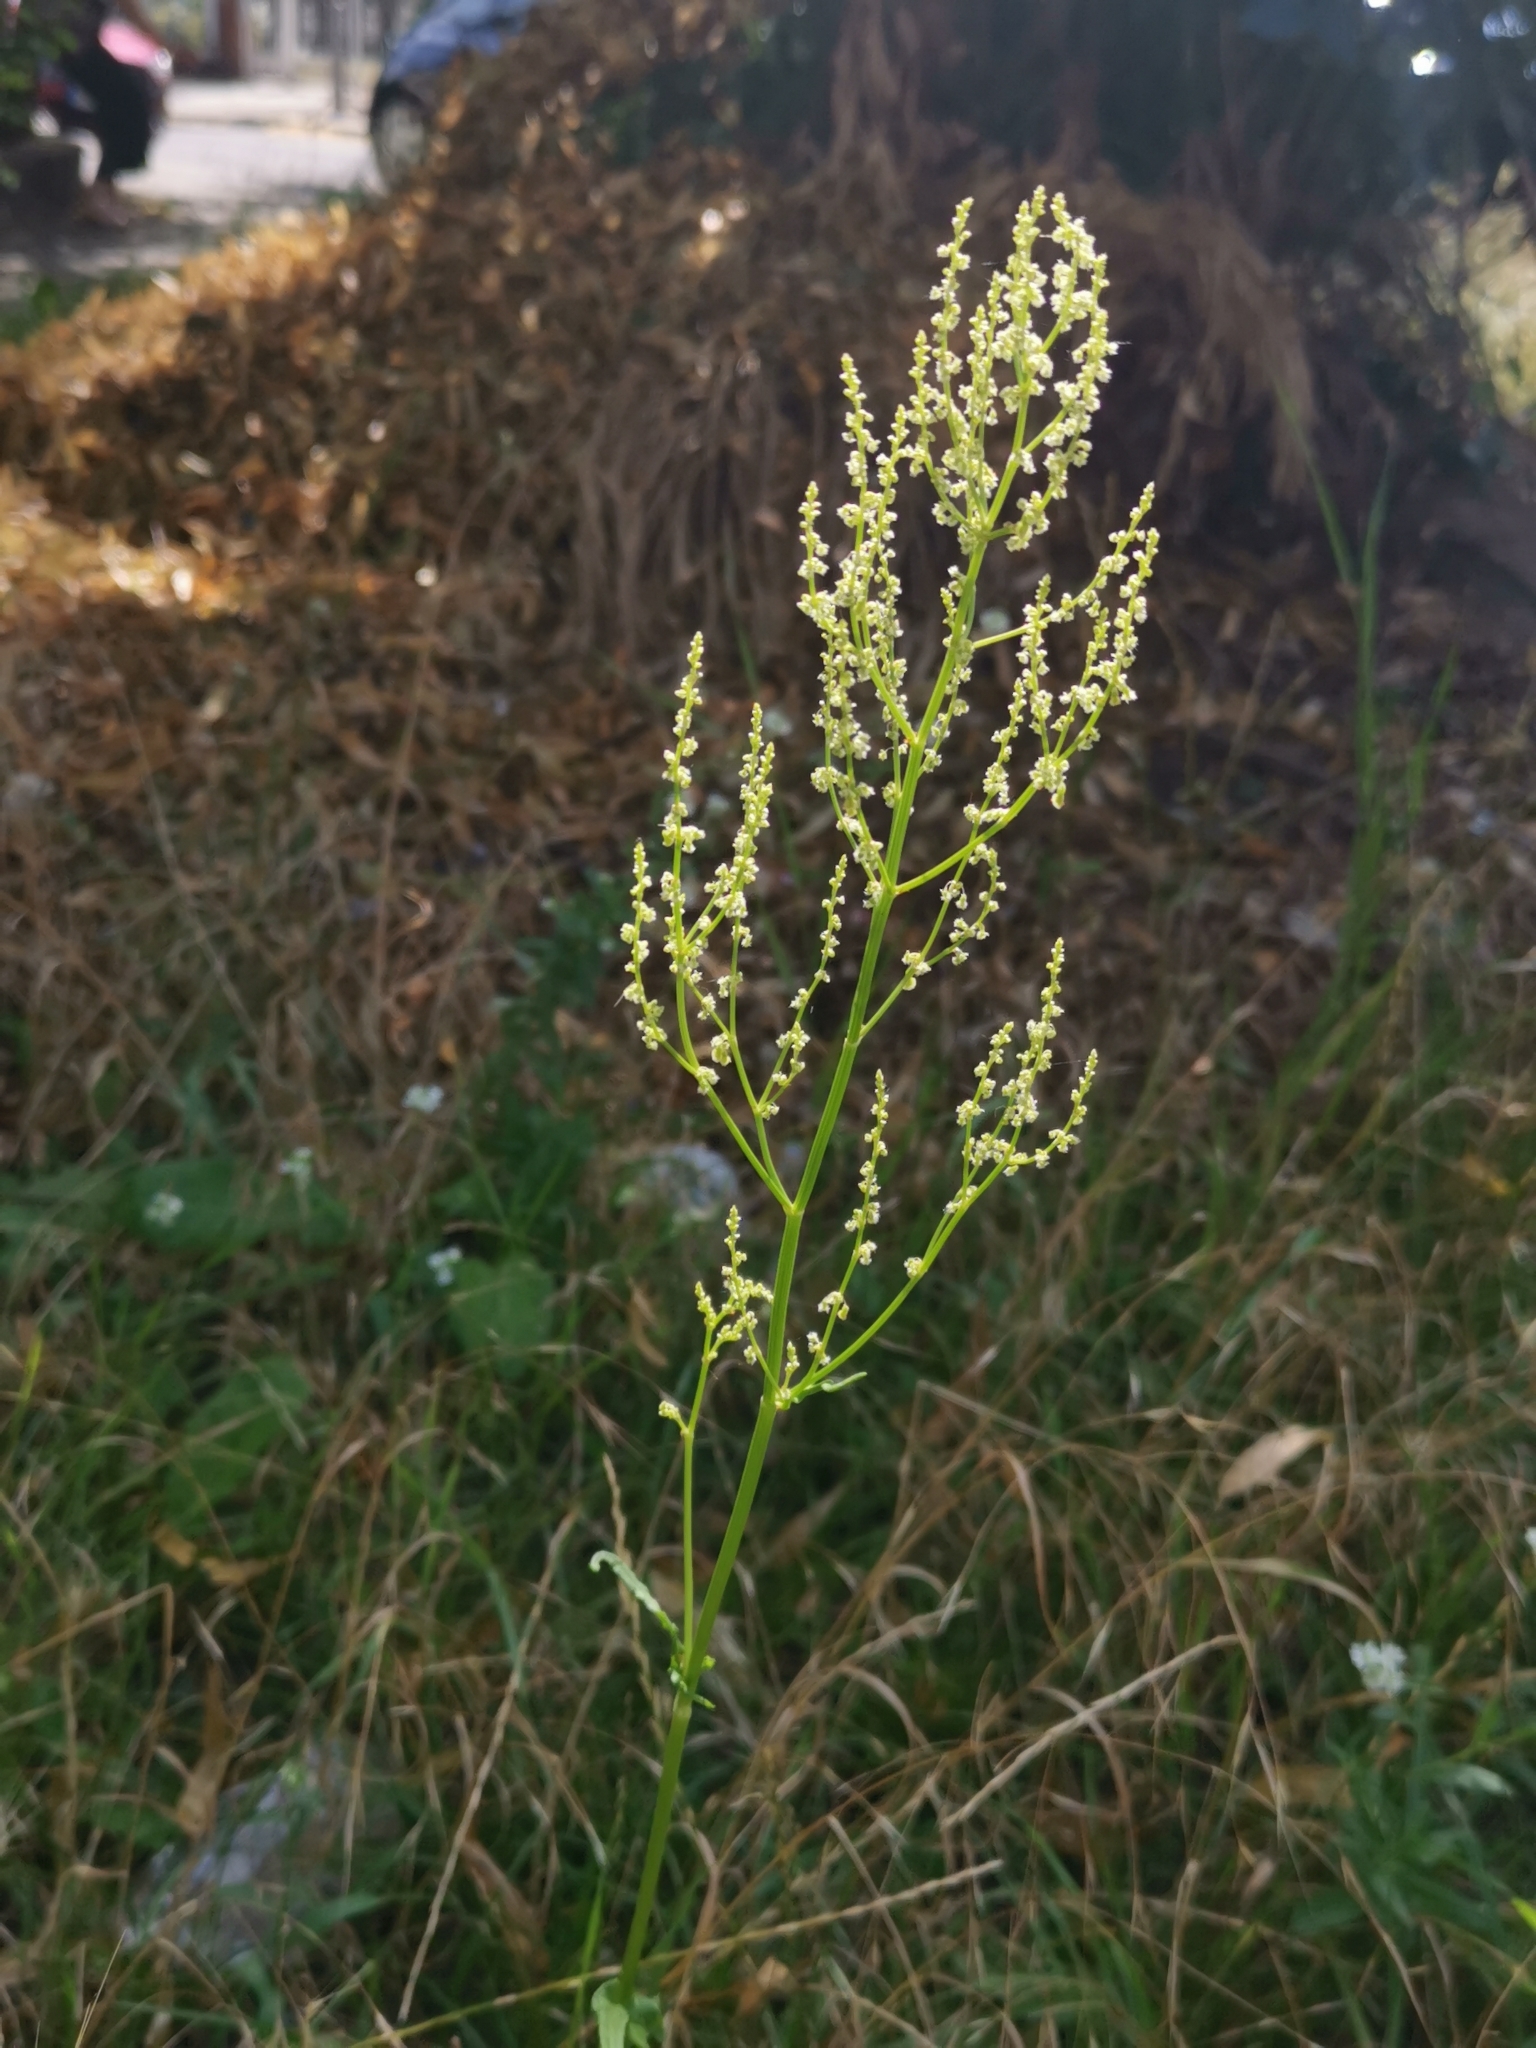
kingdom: Plantae
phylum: Tracheophyta
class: Magnoliopsida
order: Caryophyllales
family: Polygonaceae
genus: Rumex
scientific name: Rumex thyrsiflorus
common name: Garden sorrel
